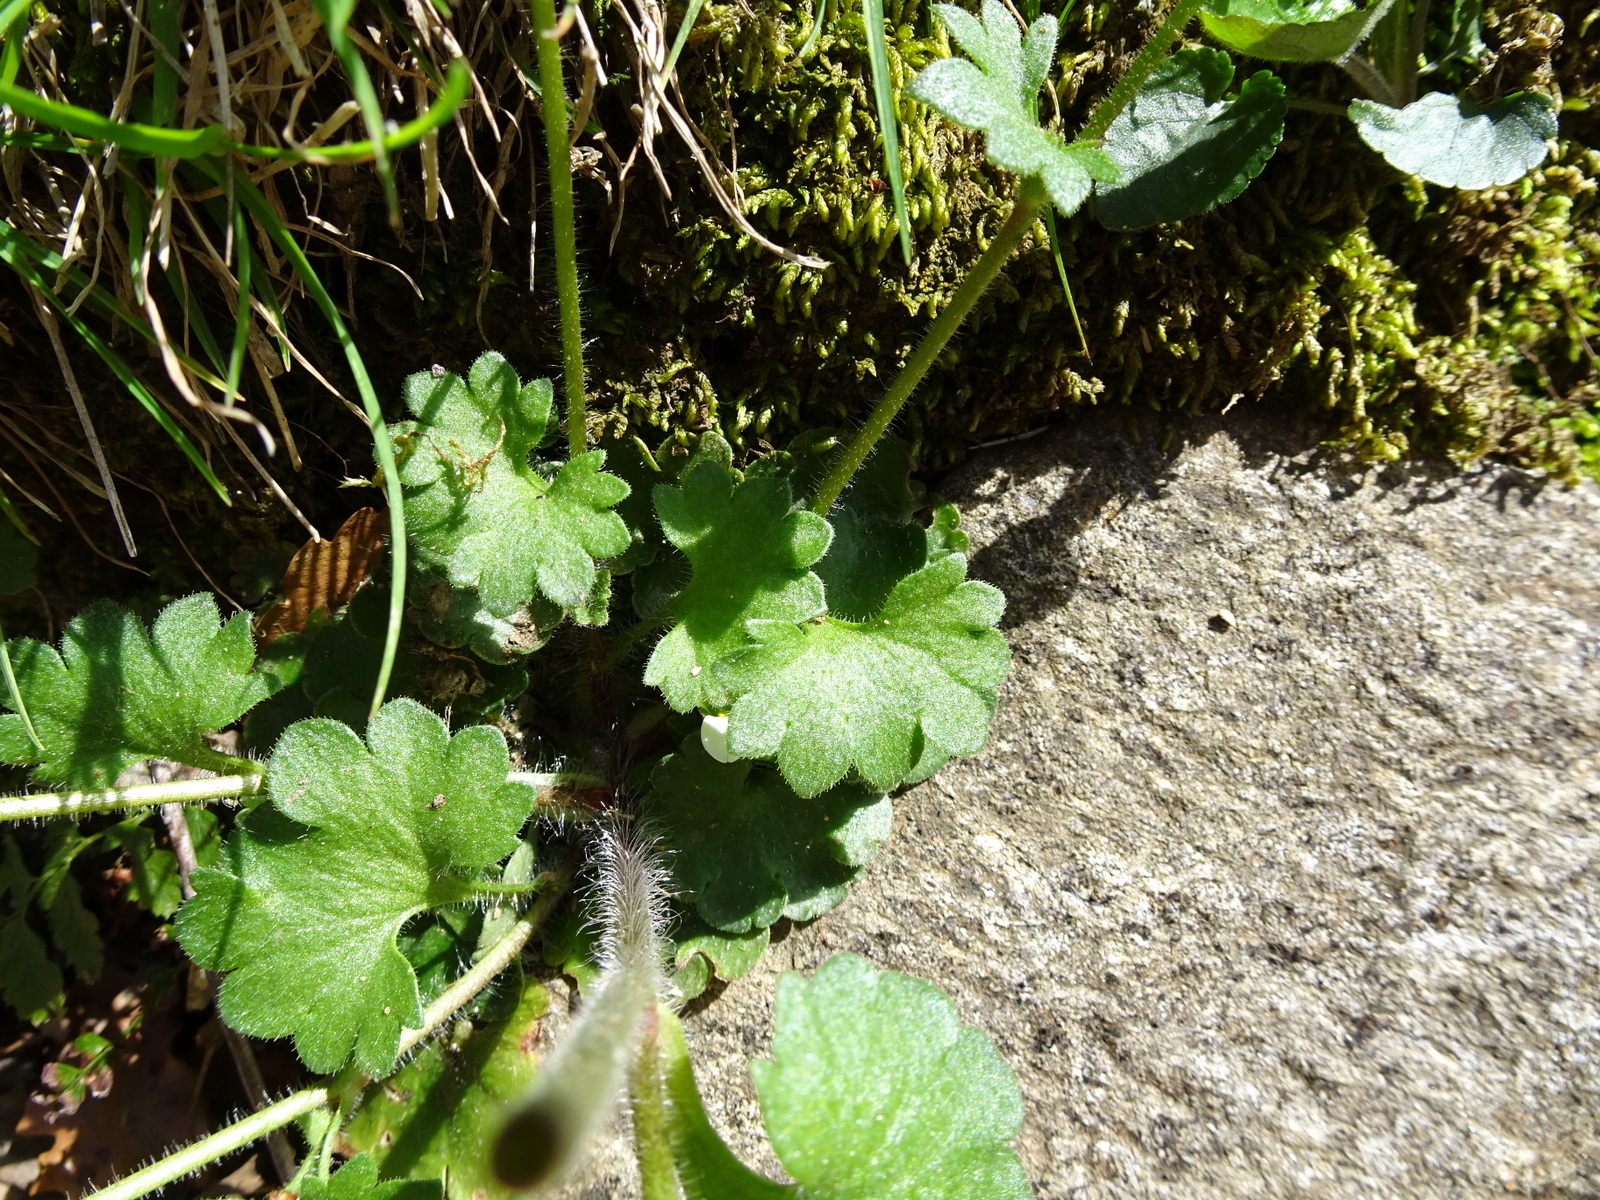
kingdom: Plantae
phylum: Tracheophyta
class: Magnoliopsida
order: Saxifragales
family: Saxifragaceae
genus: Saxifraga
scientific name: Saxifraga granulata
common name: Meadow saxifrage
